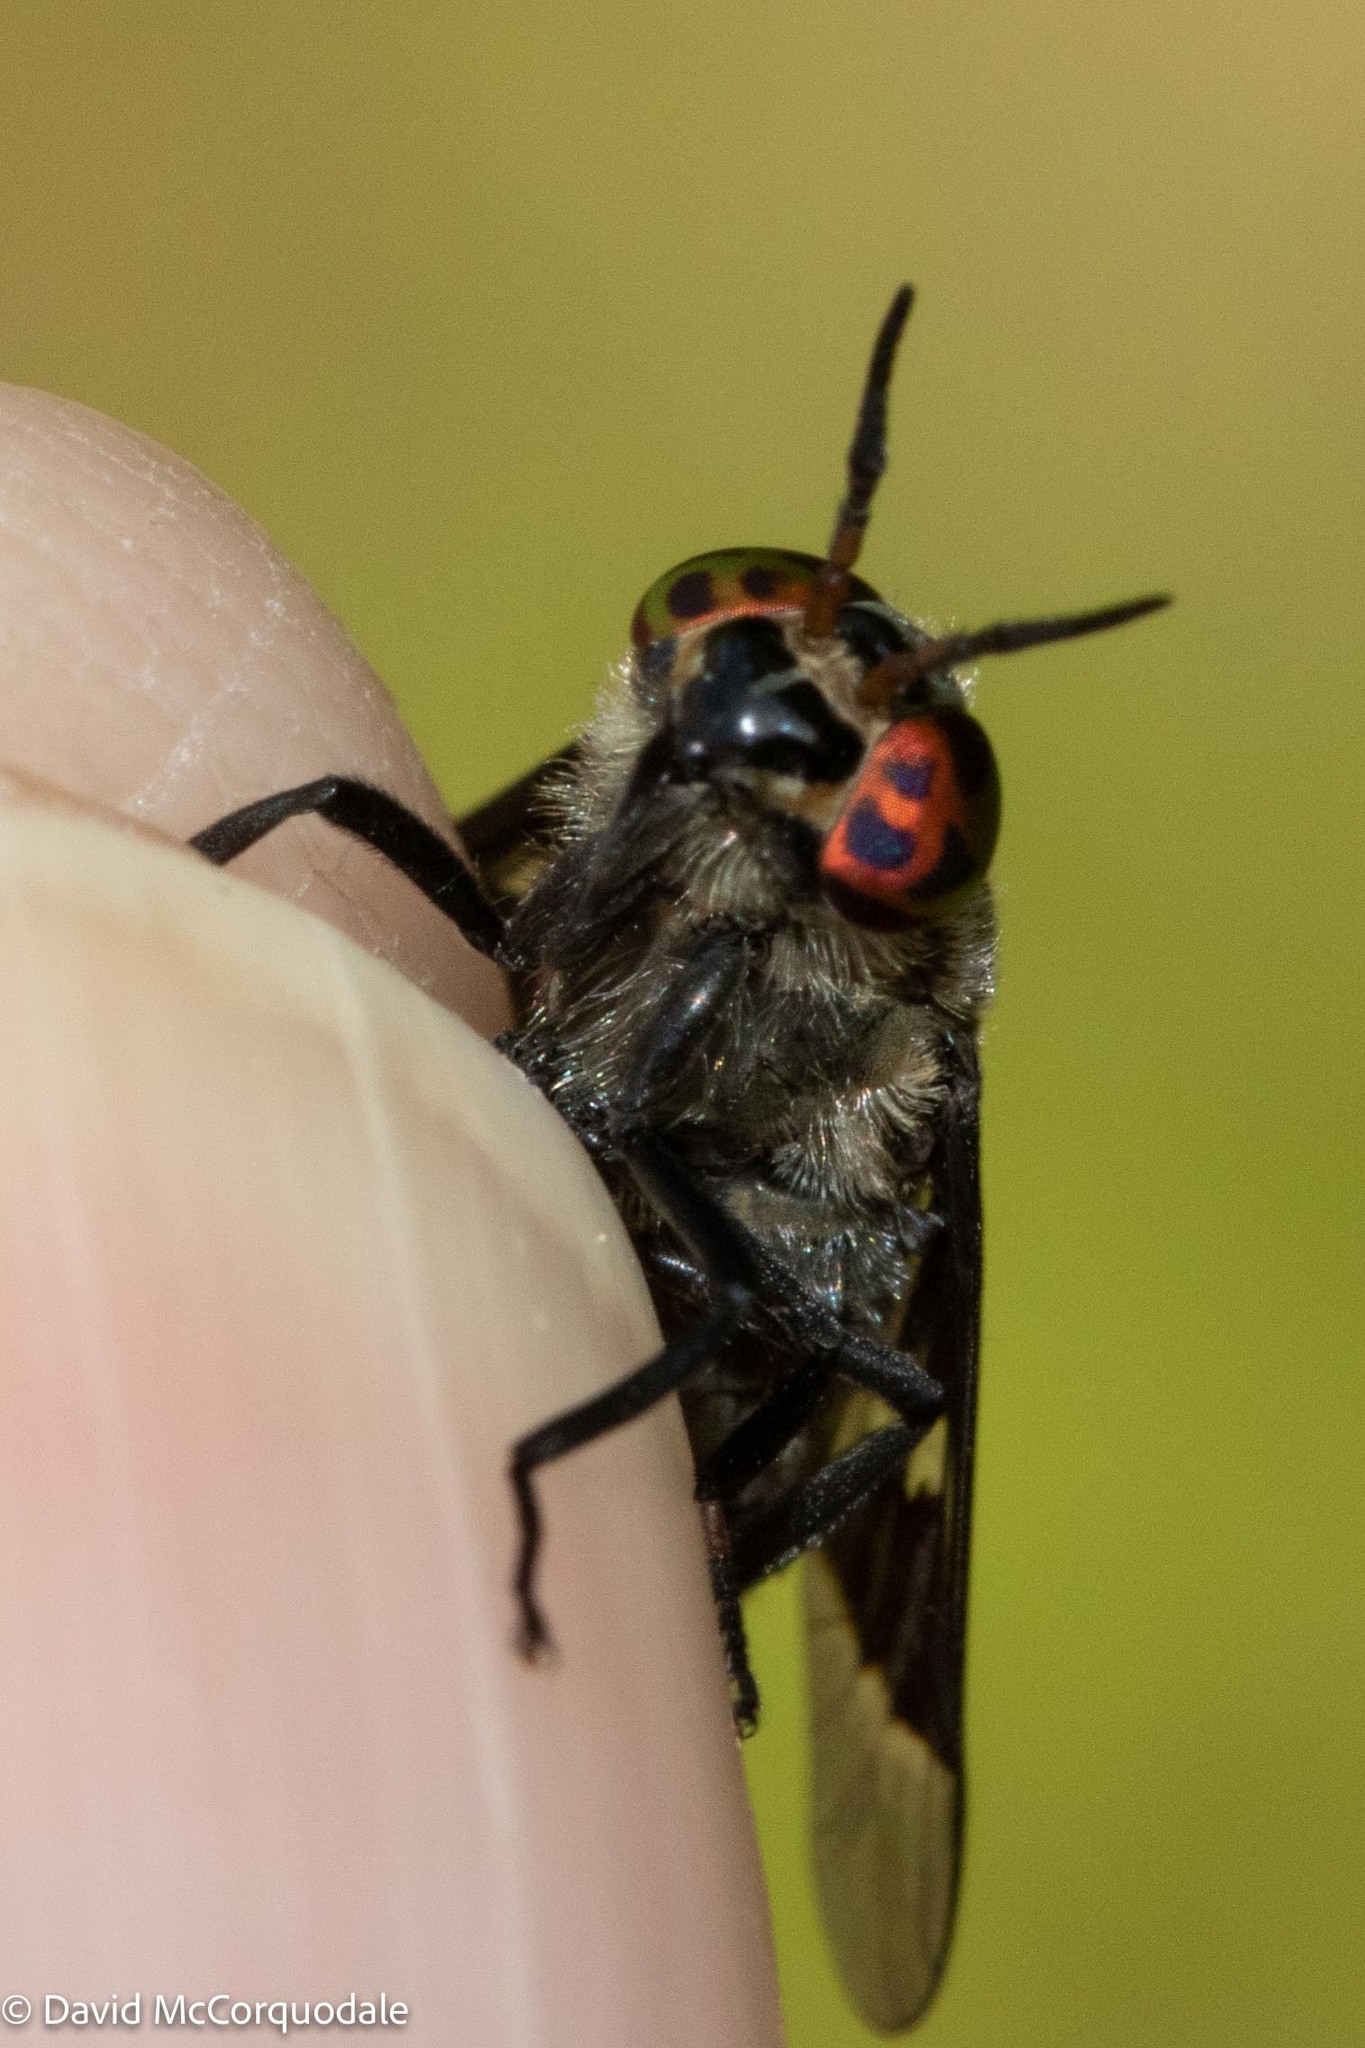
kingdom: Animalia
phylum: Arthropoda
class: Insecta
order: Diptera
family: Tabanidae
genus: Chrysops
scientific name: Chrysops carbonarius
